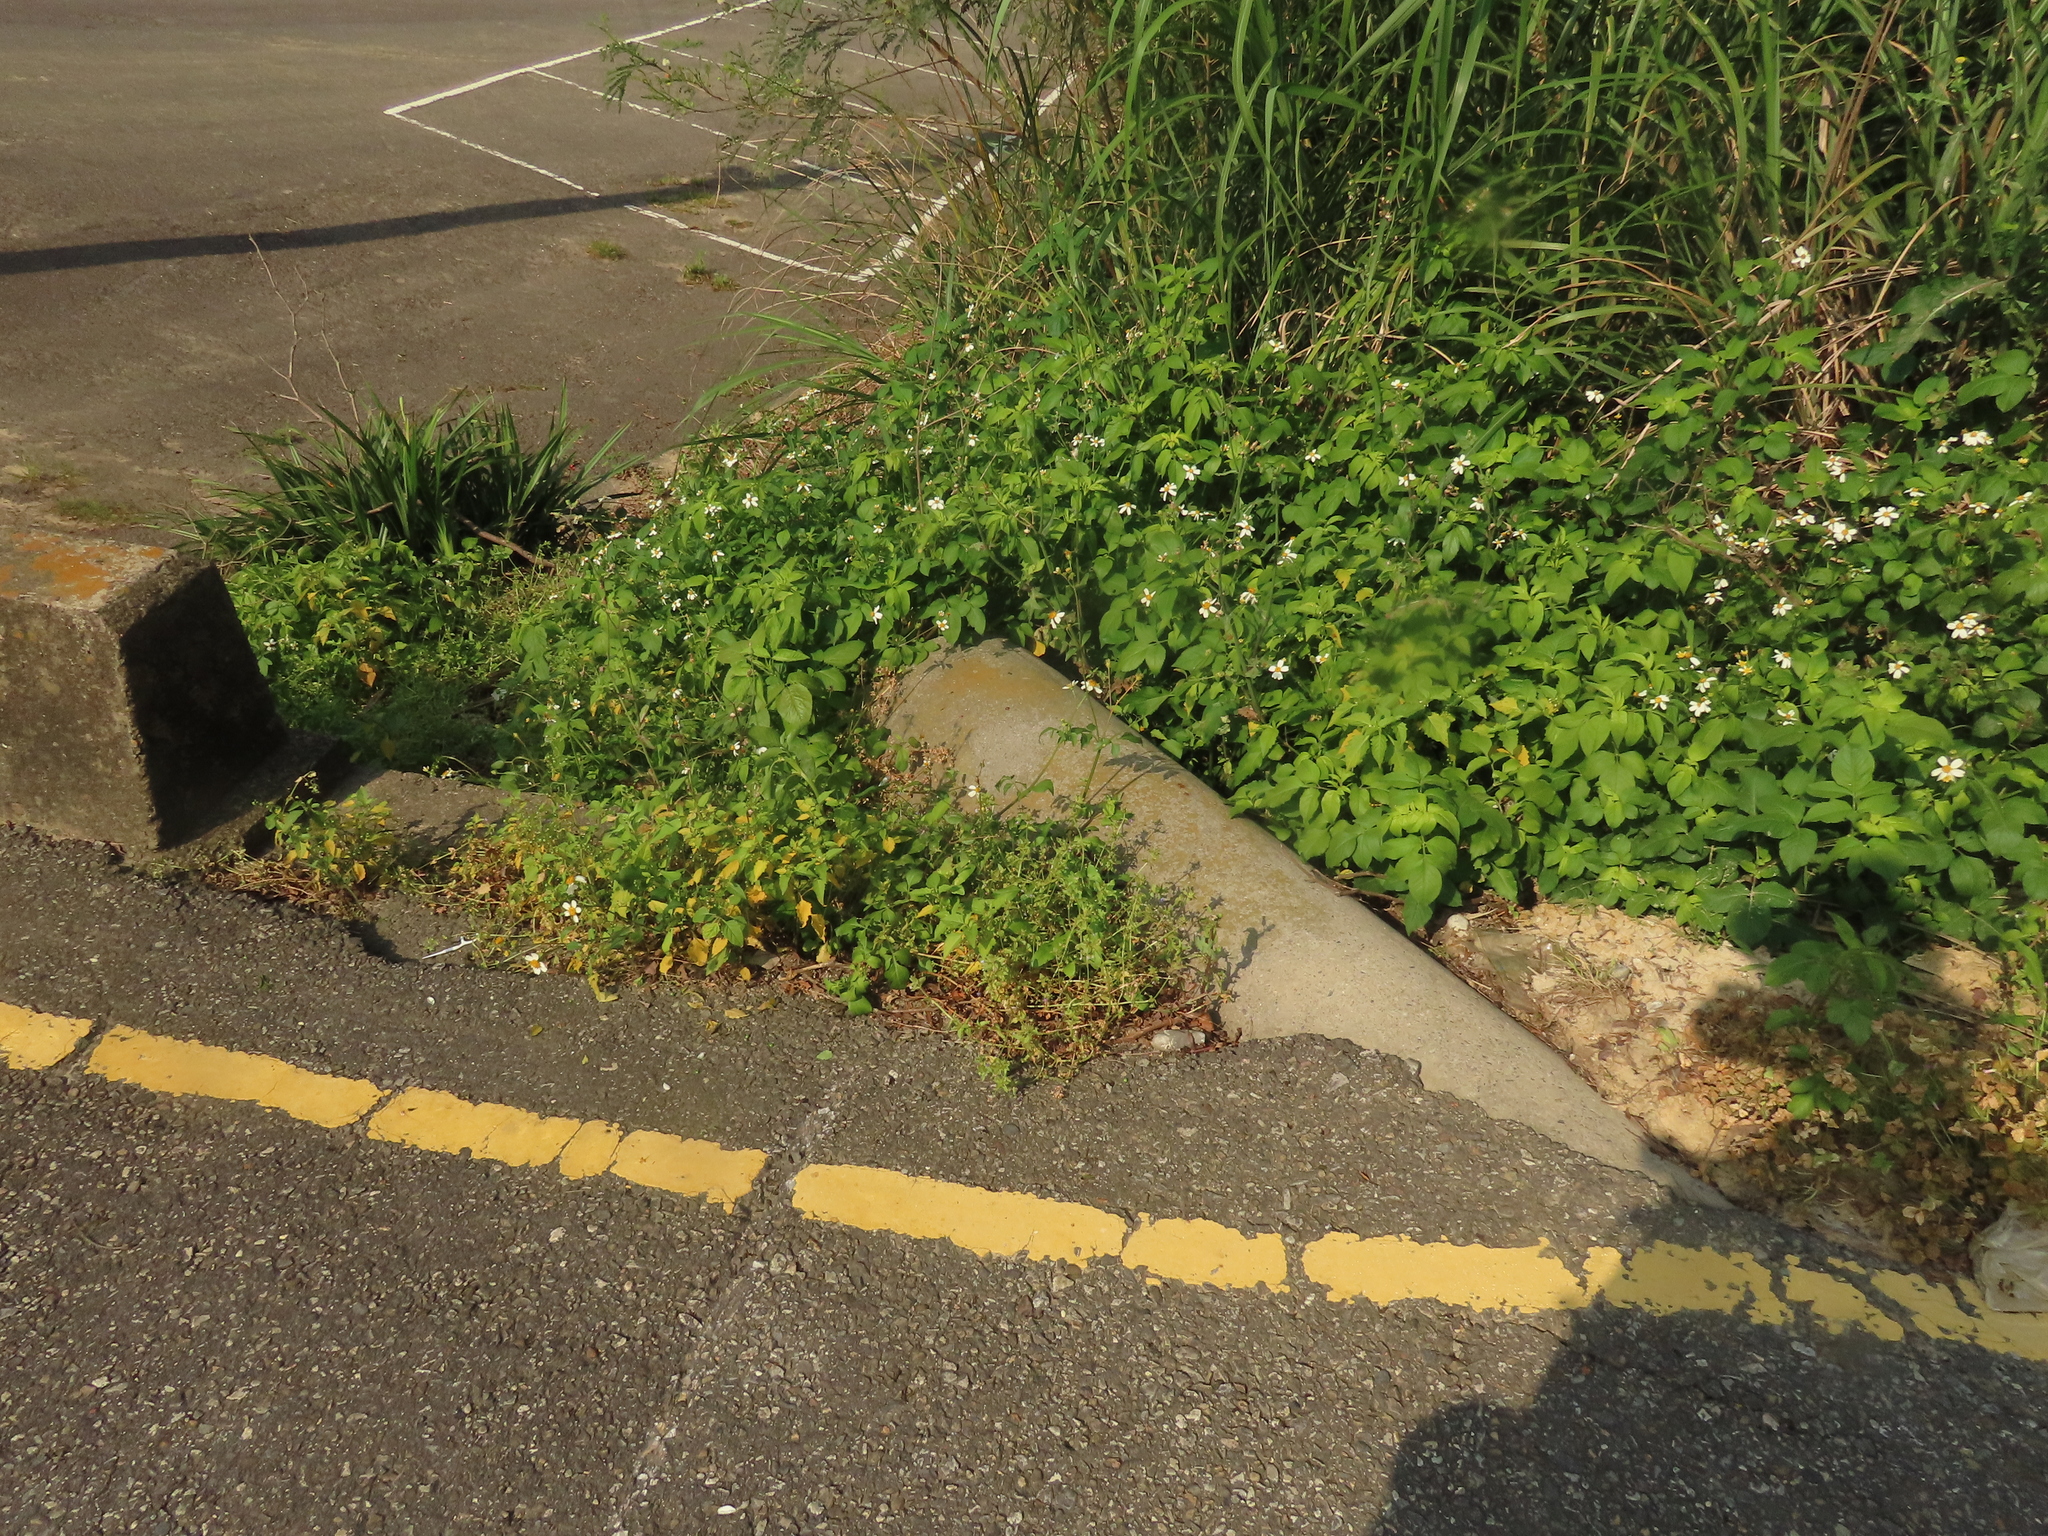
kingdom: Plantae
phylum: Tracheophyta
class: Magnoliopsida
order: Ericales
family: Primulaceae
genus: Lysimachia
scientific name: Lysimachia loeflingii
